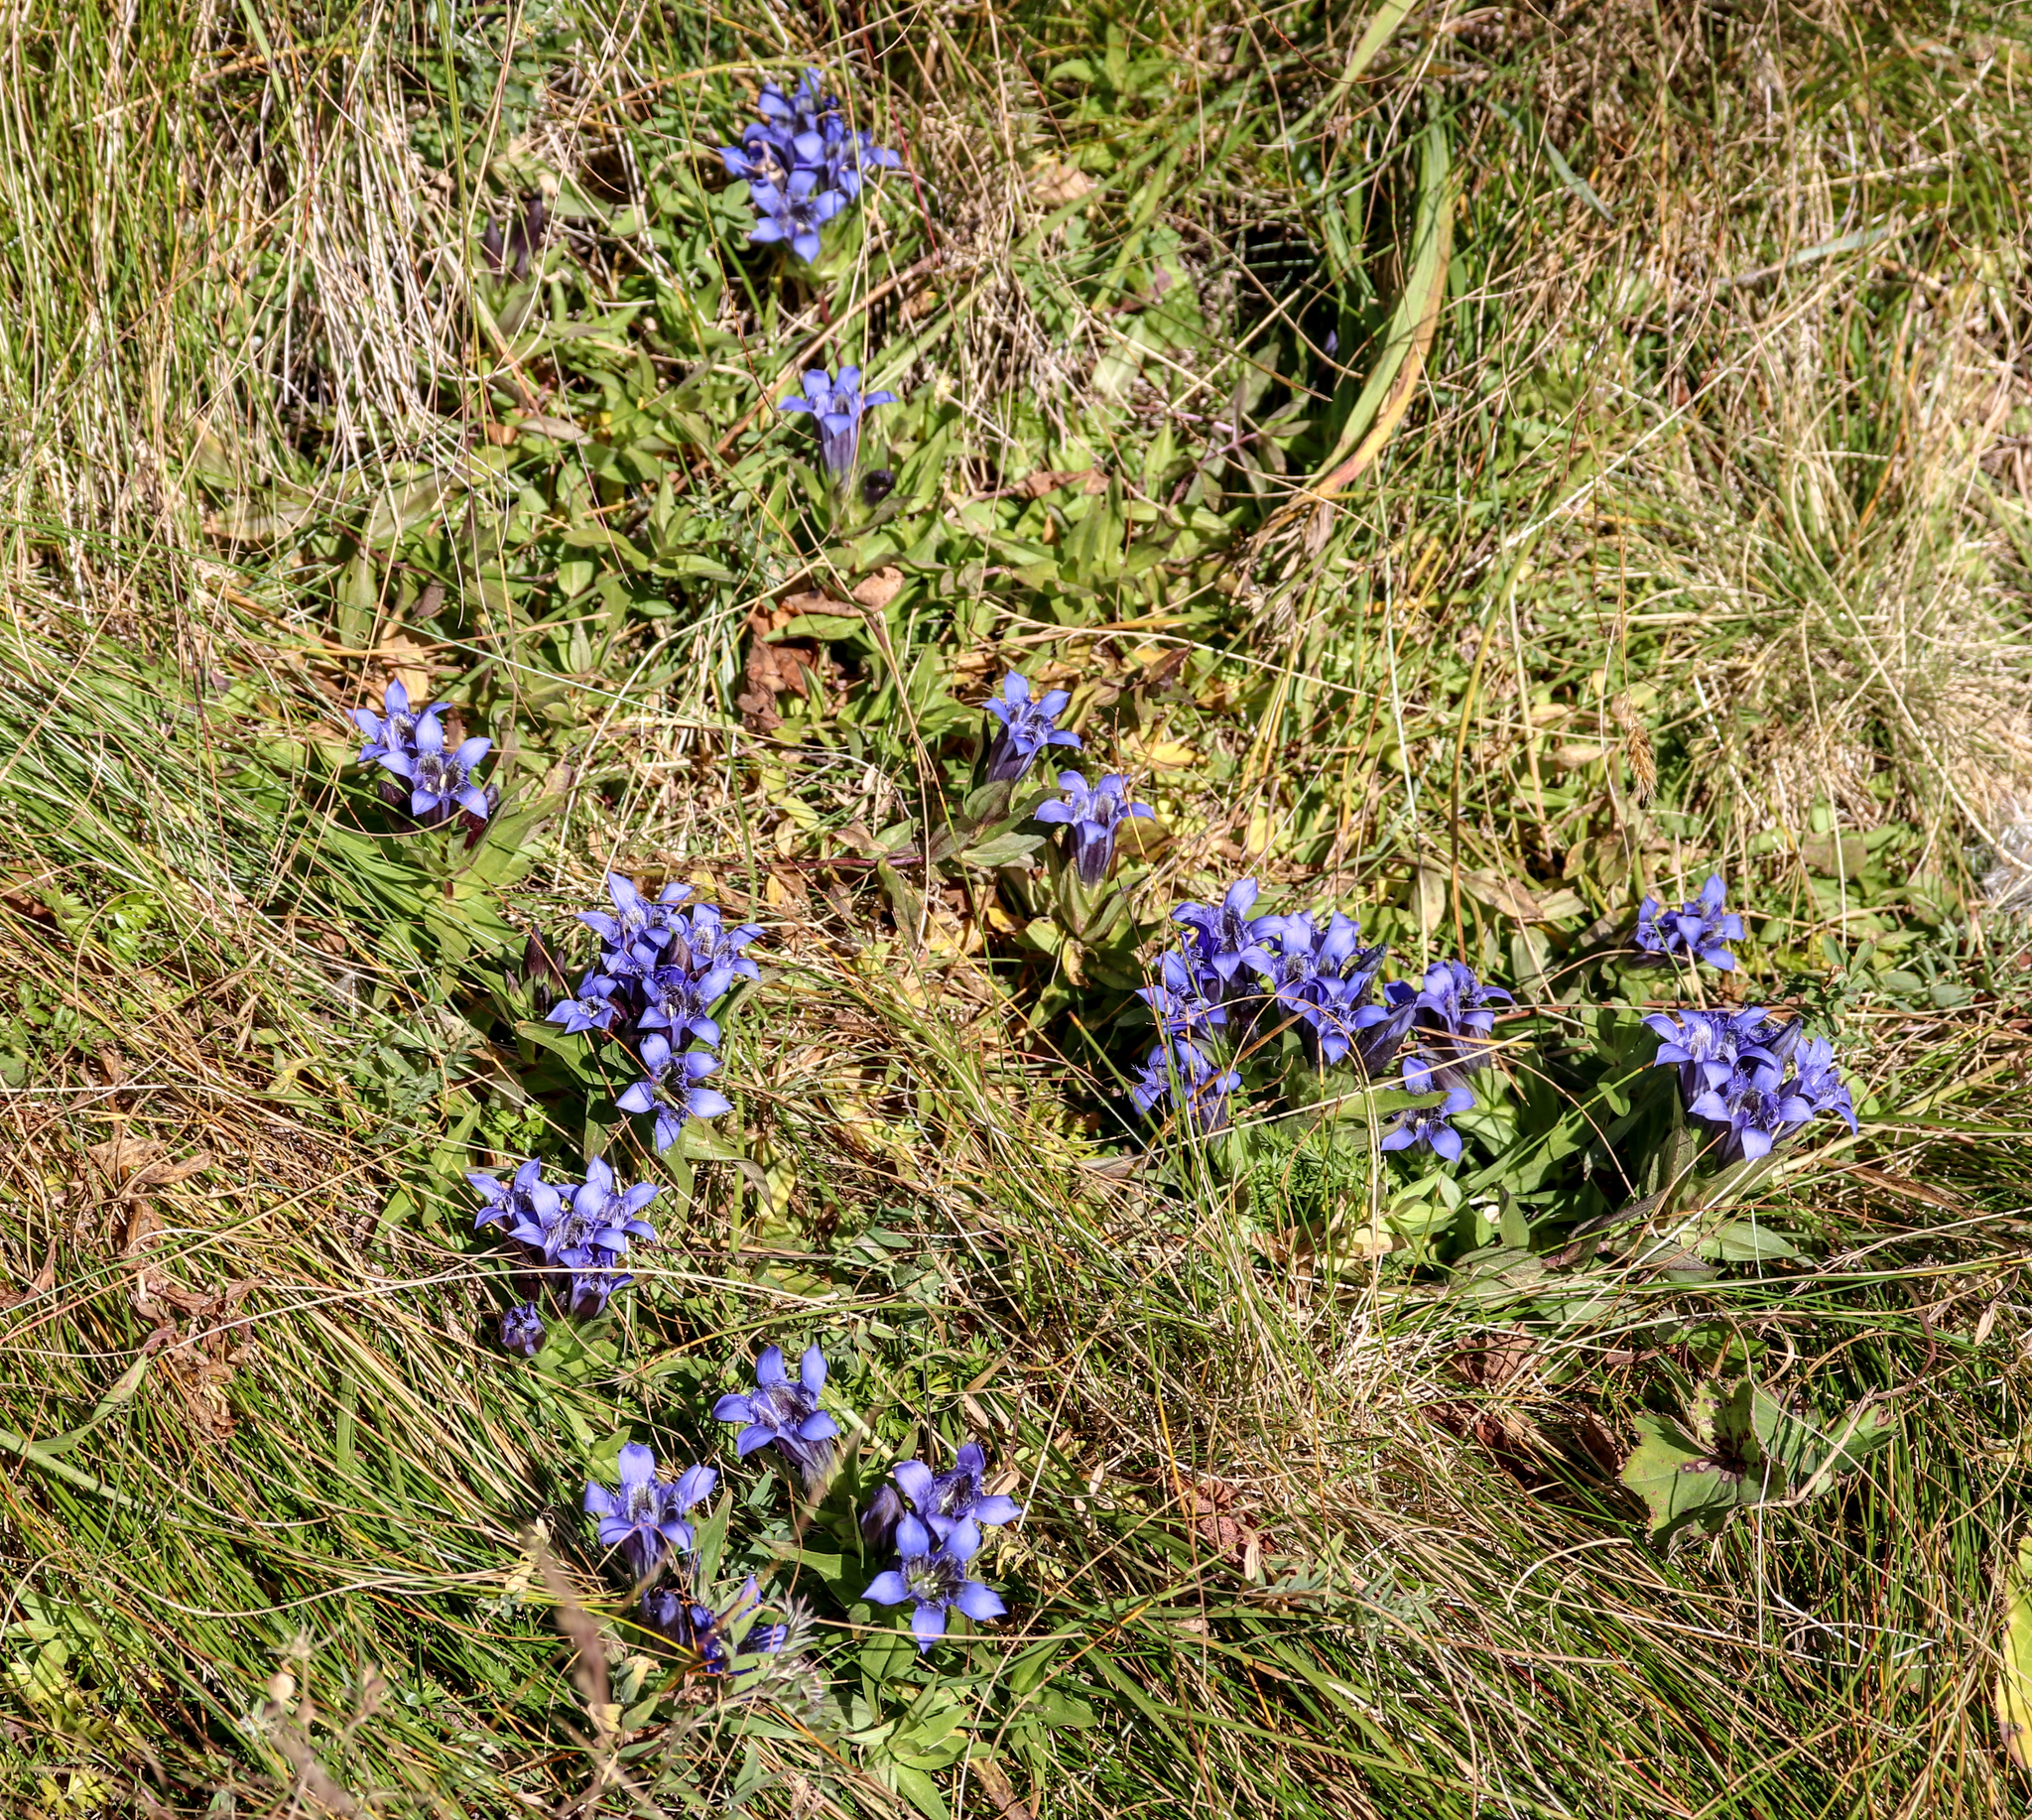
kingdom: Plantae
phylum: Tracheophyta
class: Magnoliopsida
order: Gentianales
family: Gentianaceae
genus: Gentiana
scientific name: Gentiana septemfida
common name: Crested gentian
